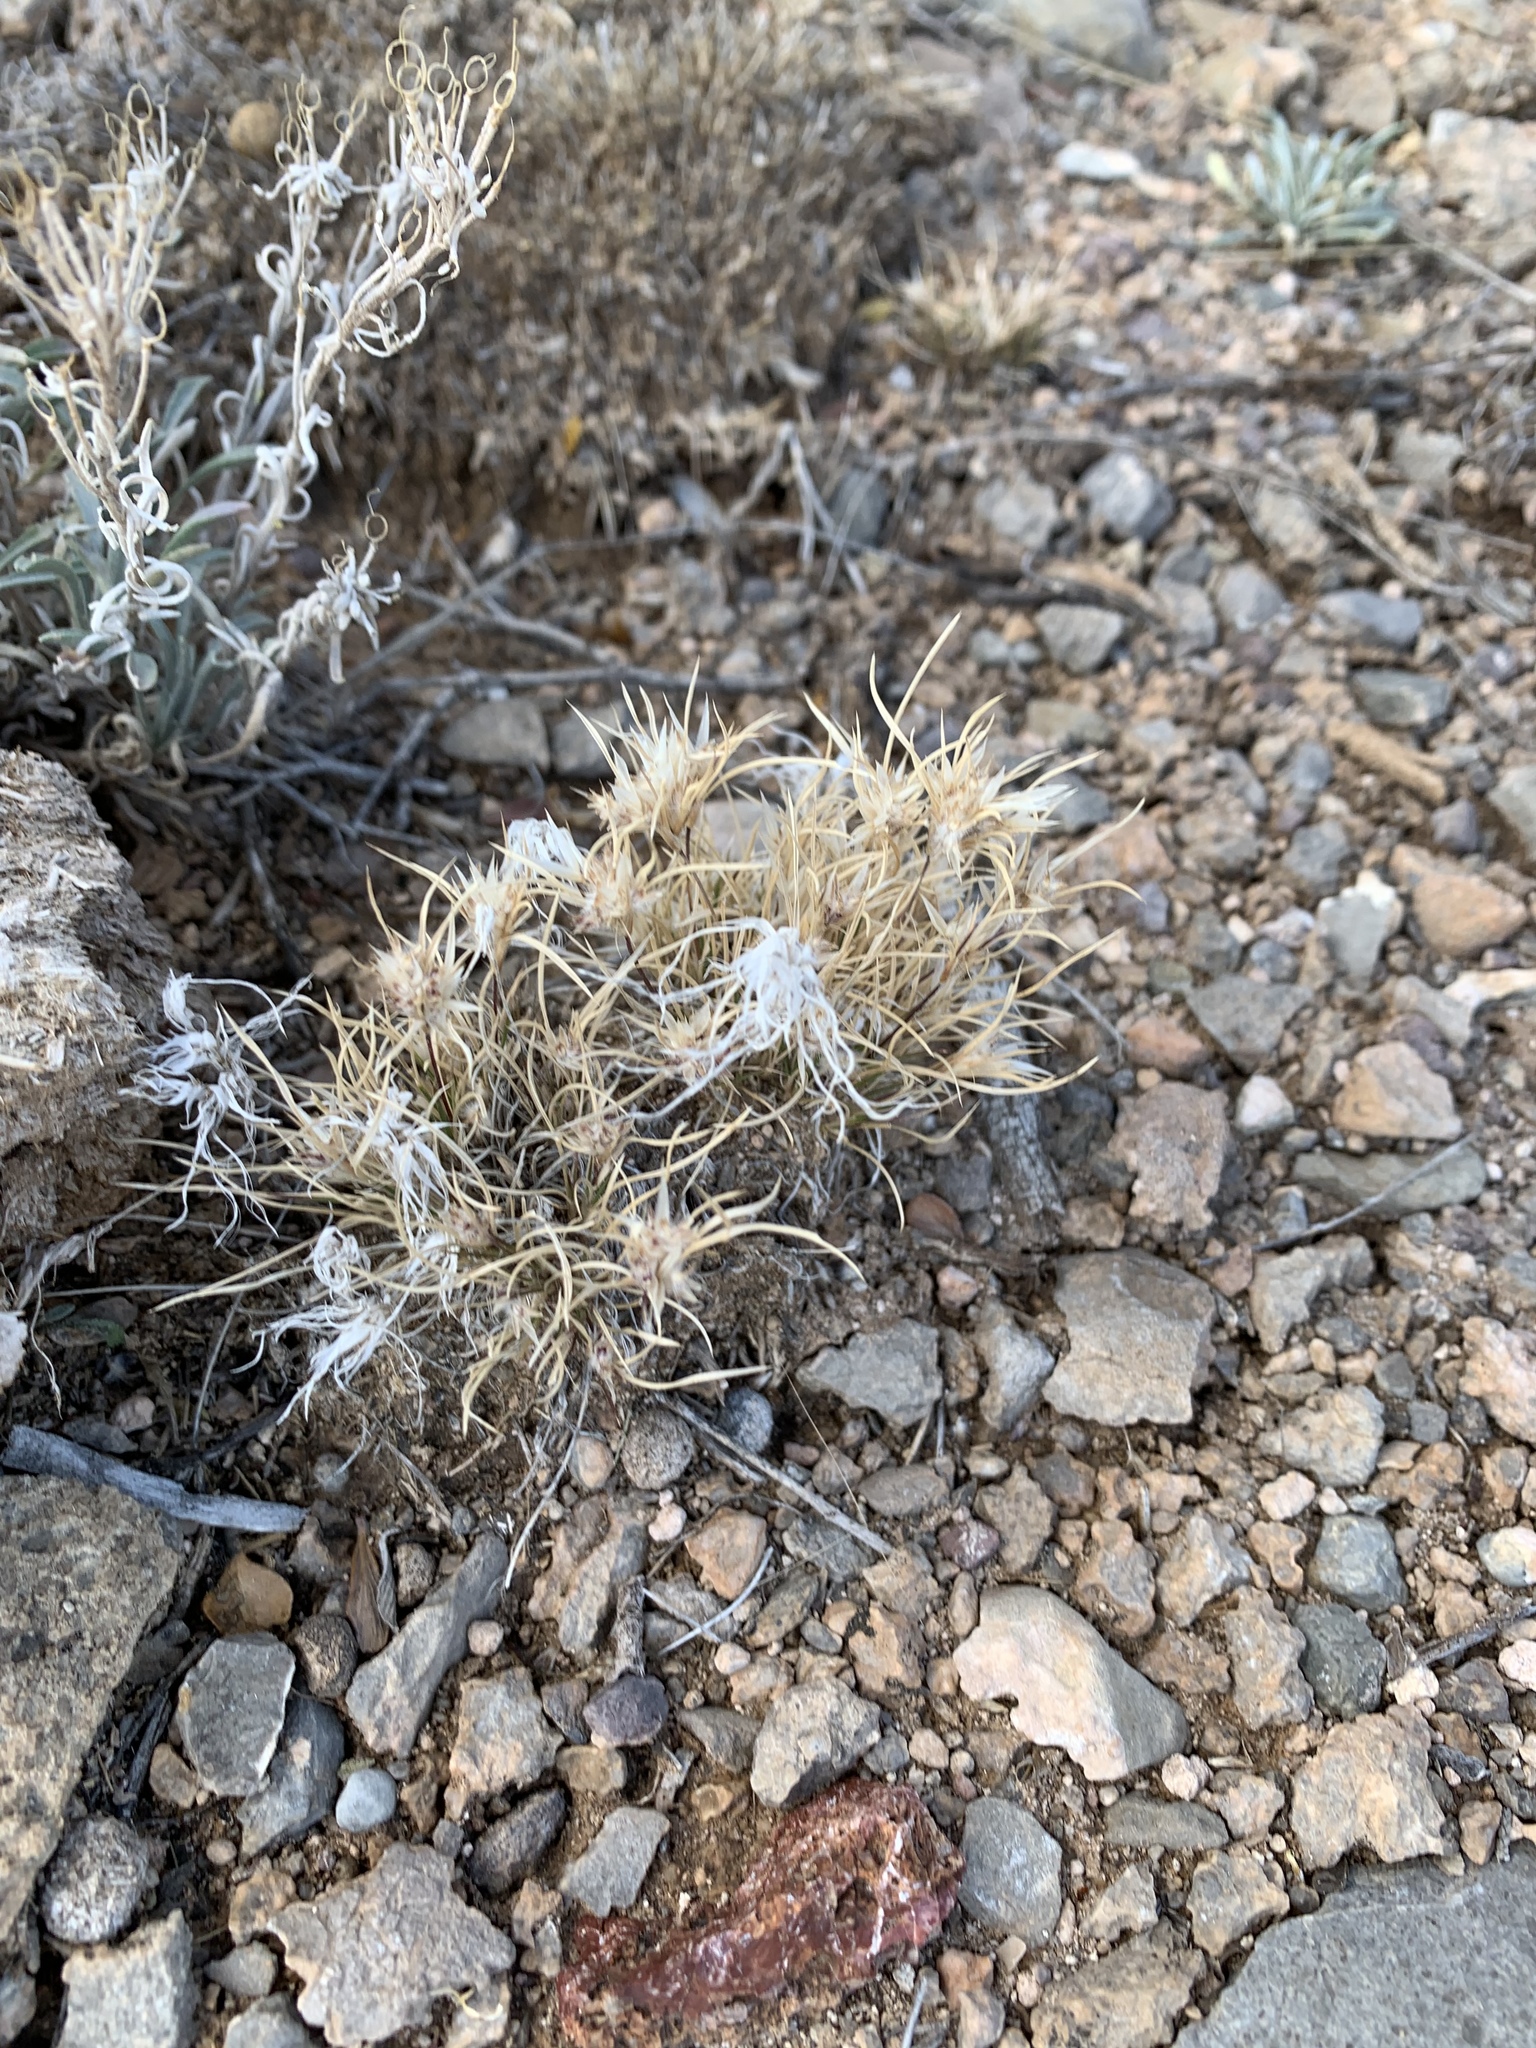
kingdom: Plantae
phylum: Tracheophyta
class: Liliopsida
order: Poales
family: Poaceae
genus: Dasyochloa
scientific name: Dasyochloa pulchella
